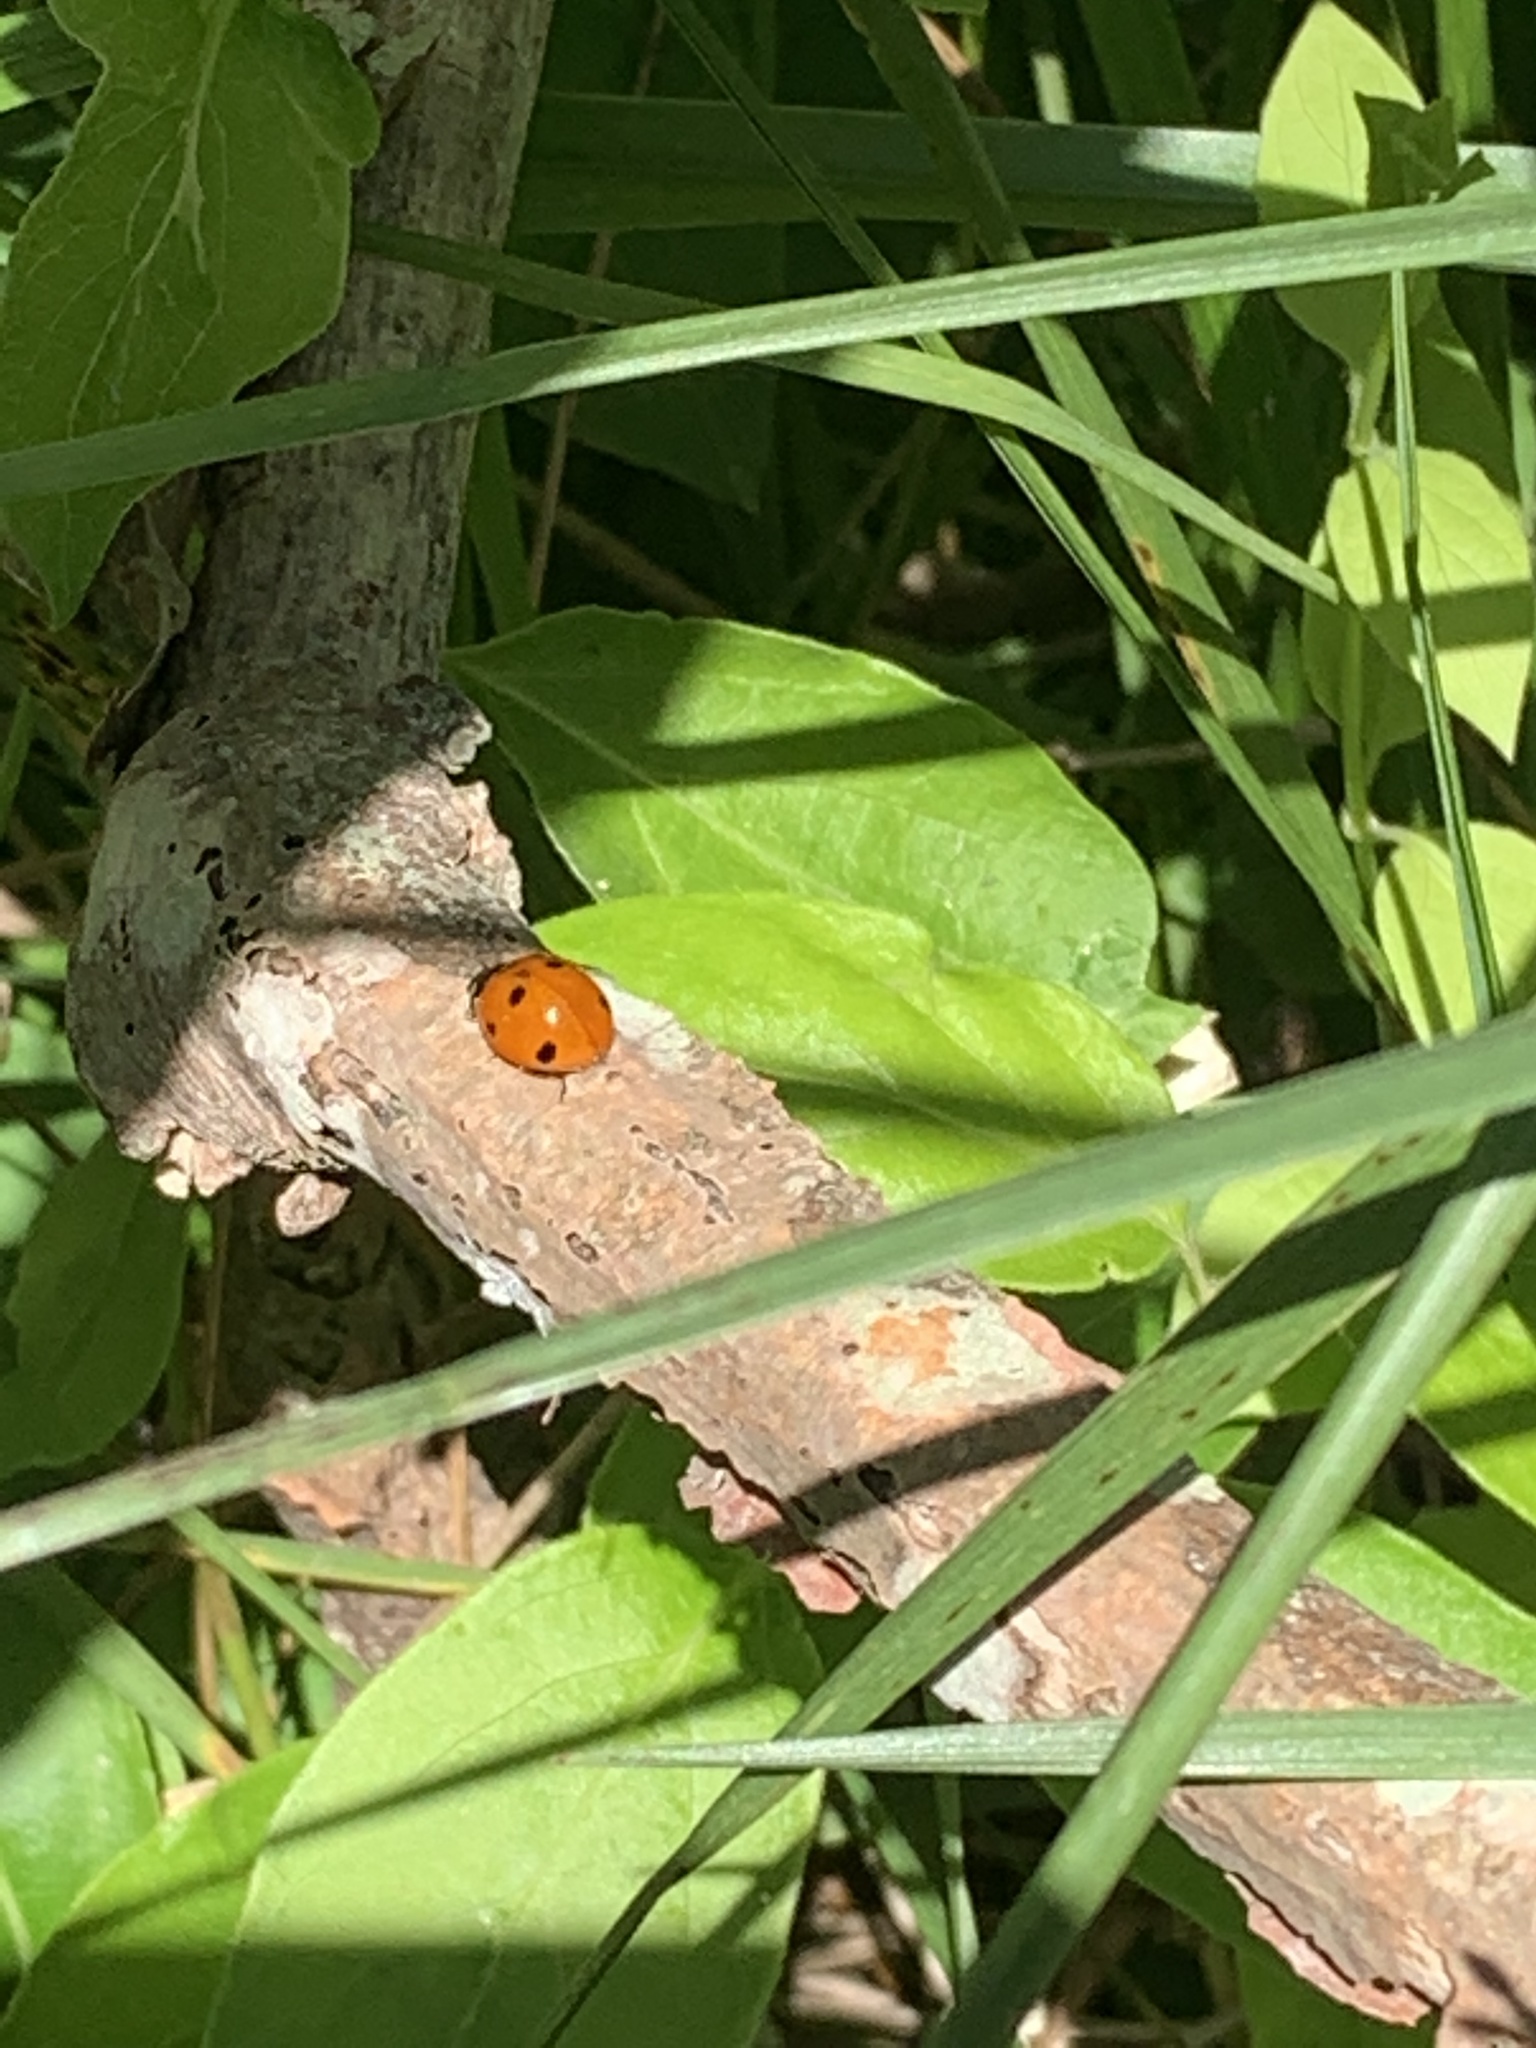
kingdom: Animalia
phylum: Arthropoda
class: Insecta
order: Coleoptera
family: Coccinellidae
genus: Coccinella
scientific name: Coccinella septempunctata
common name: Sevenspotted lady beetle
